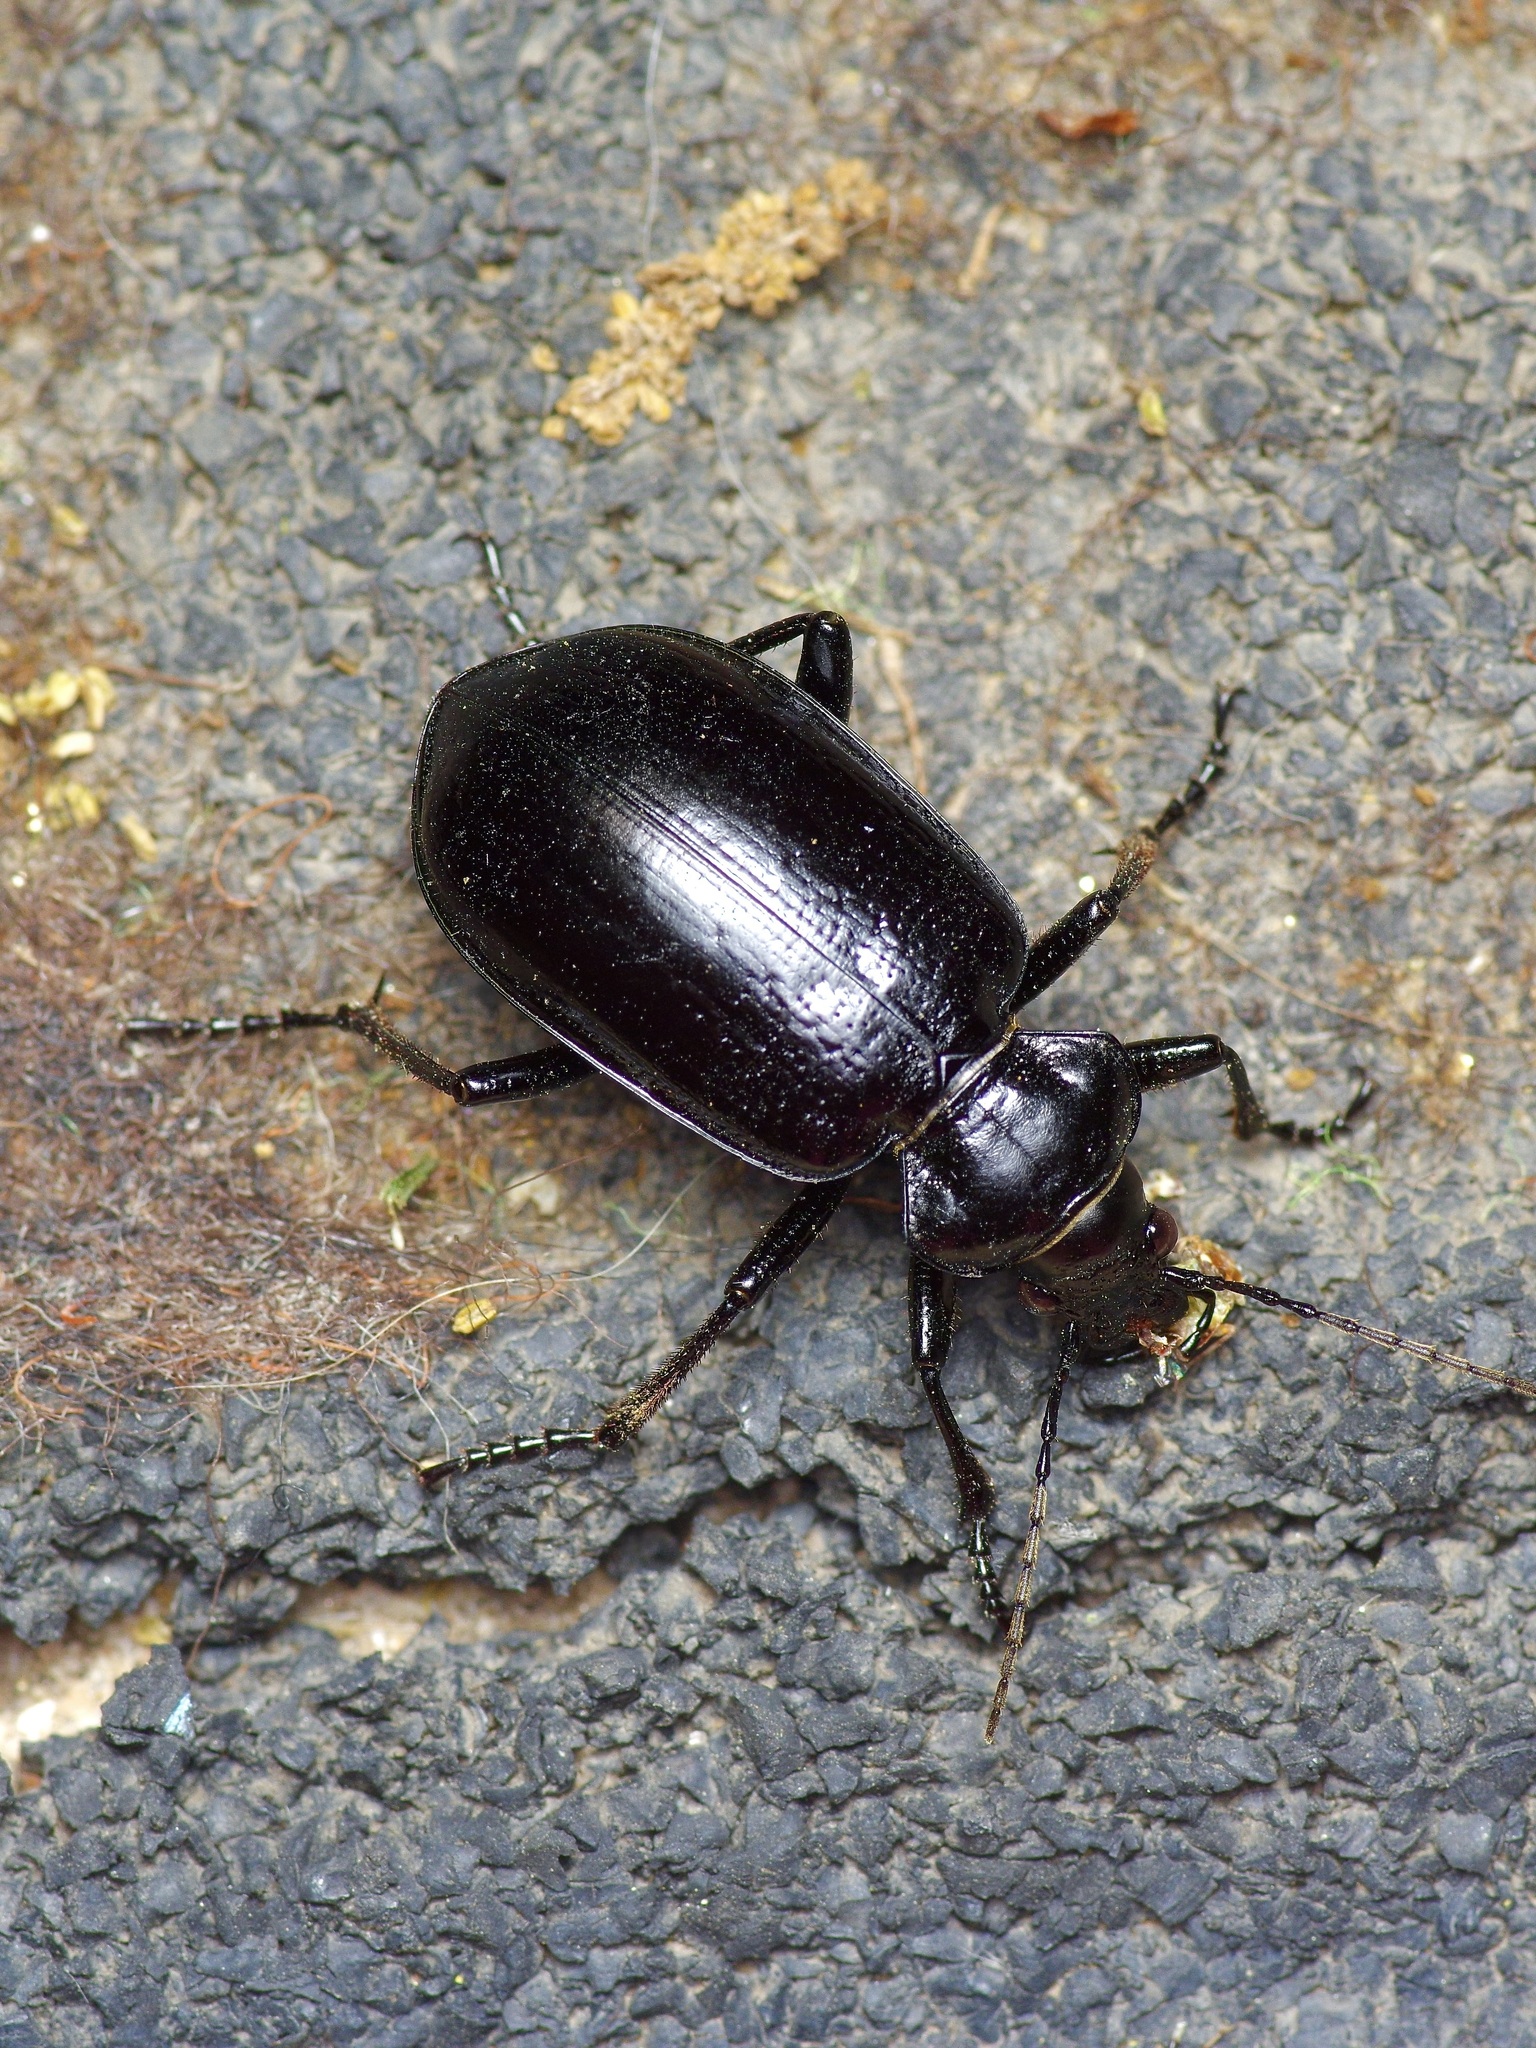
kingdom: Animalia
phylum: Arthropoda
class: Insecta
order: Coleoptera
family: Carabidae
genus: Calosoma
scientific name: Calosoma marginale
